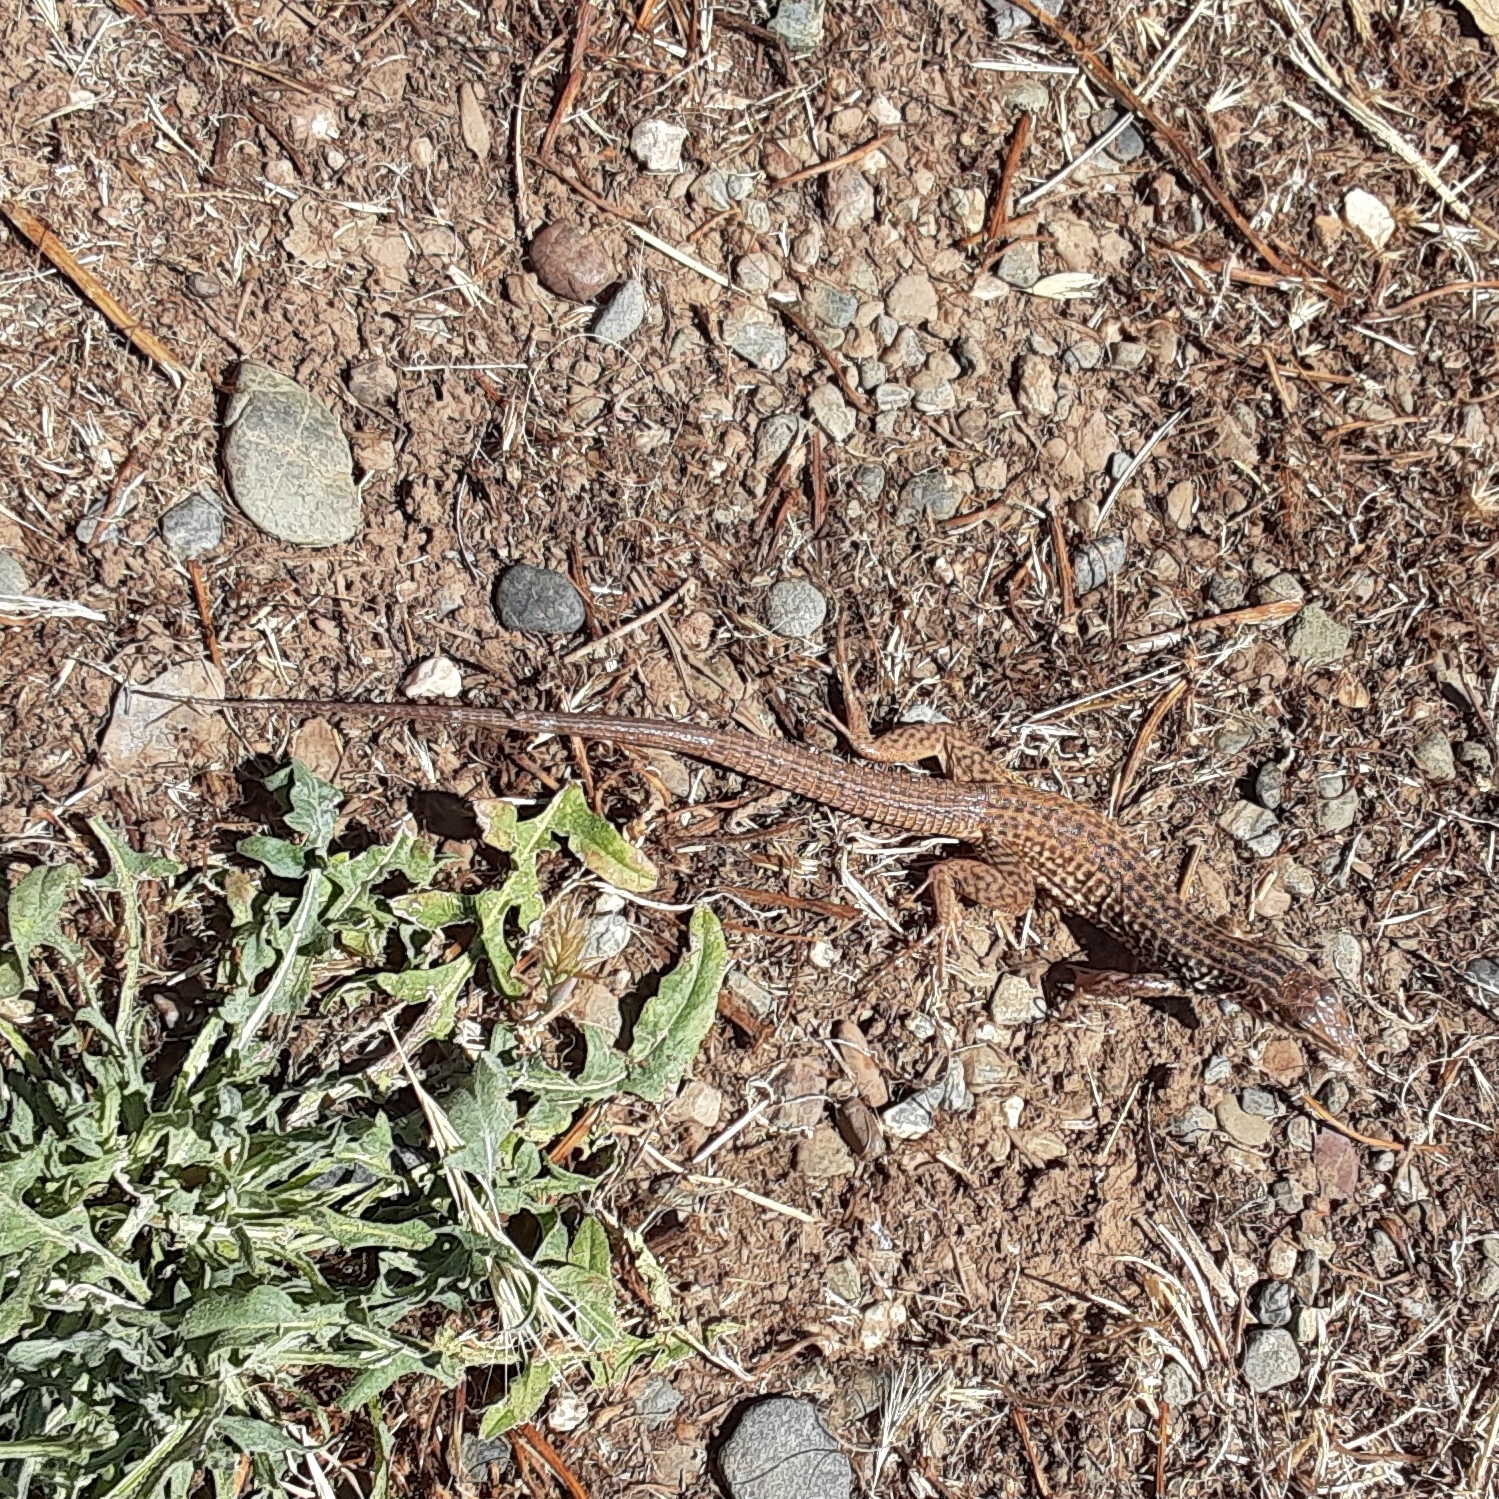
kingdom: Animalia
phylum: Chordata
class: Squamata
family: Teiidae
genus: Aspidoscelis
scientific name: Aspidoscelis tigris
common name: Tiger whiptail
